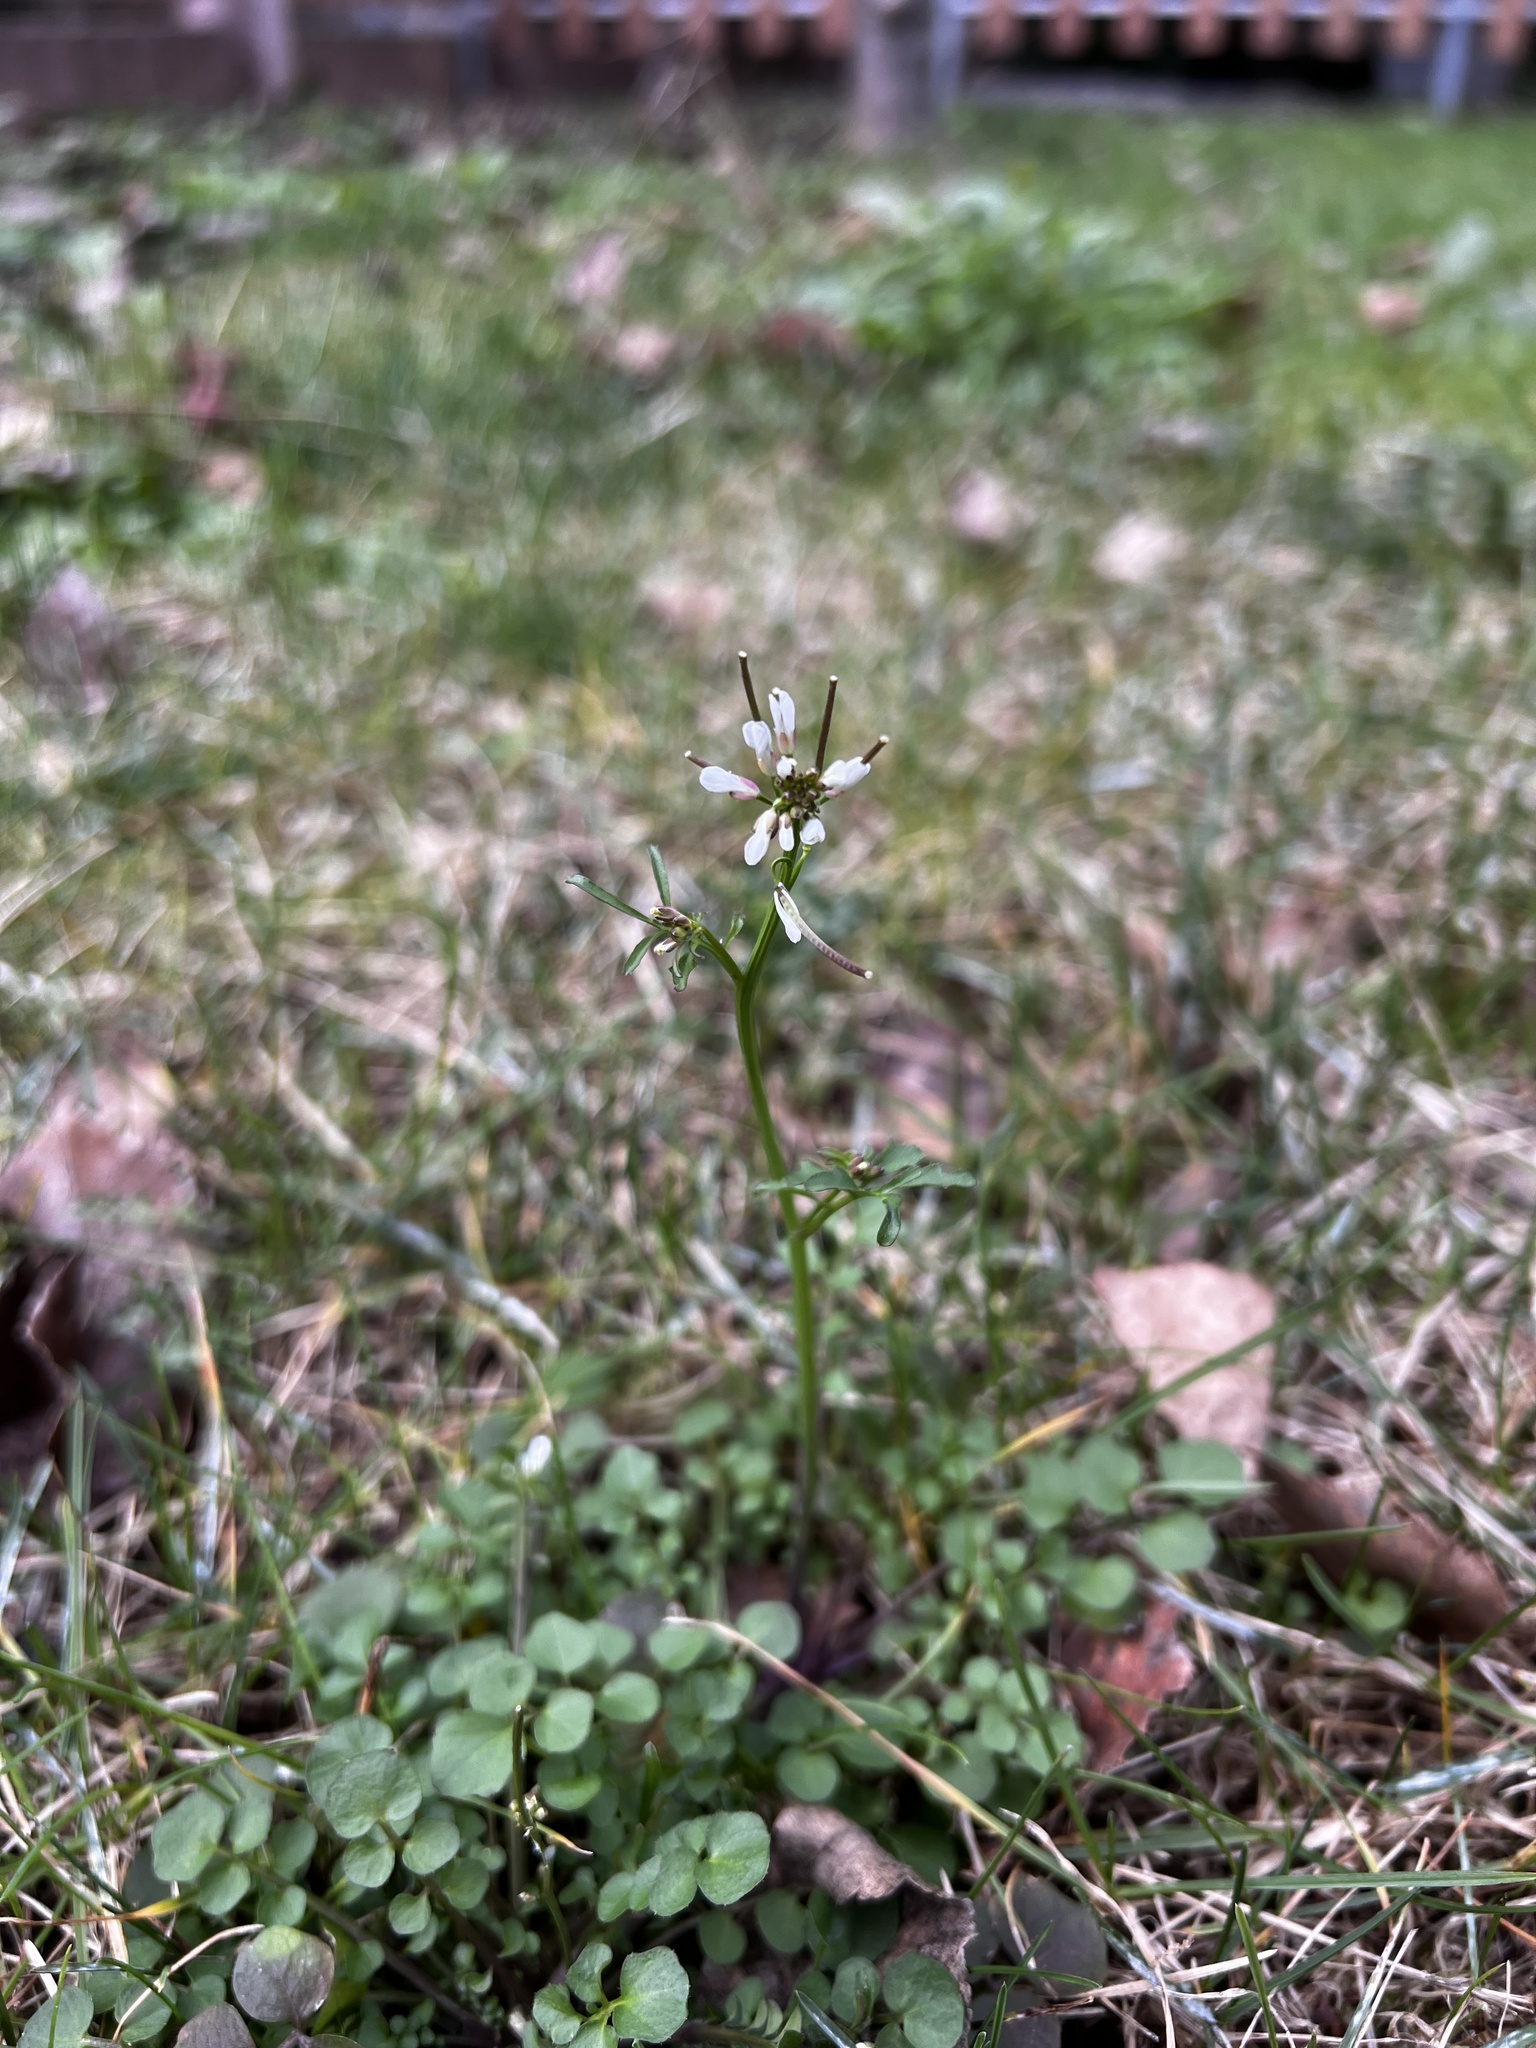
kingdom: Plantae
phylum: Tracheophyta
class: Magnoliopsida
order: Brassicales
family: Brassicaceae
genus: Cardamine
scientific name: Cardamine hirsuta
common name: Hairy bittercress
